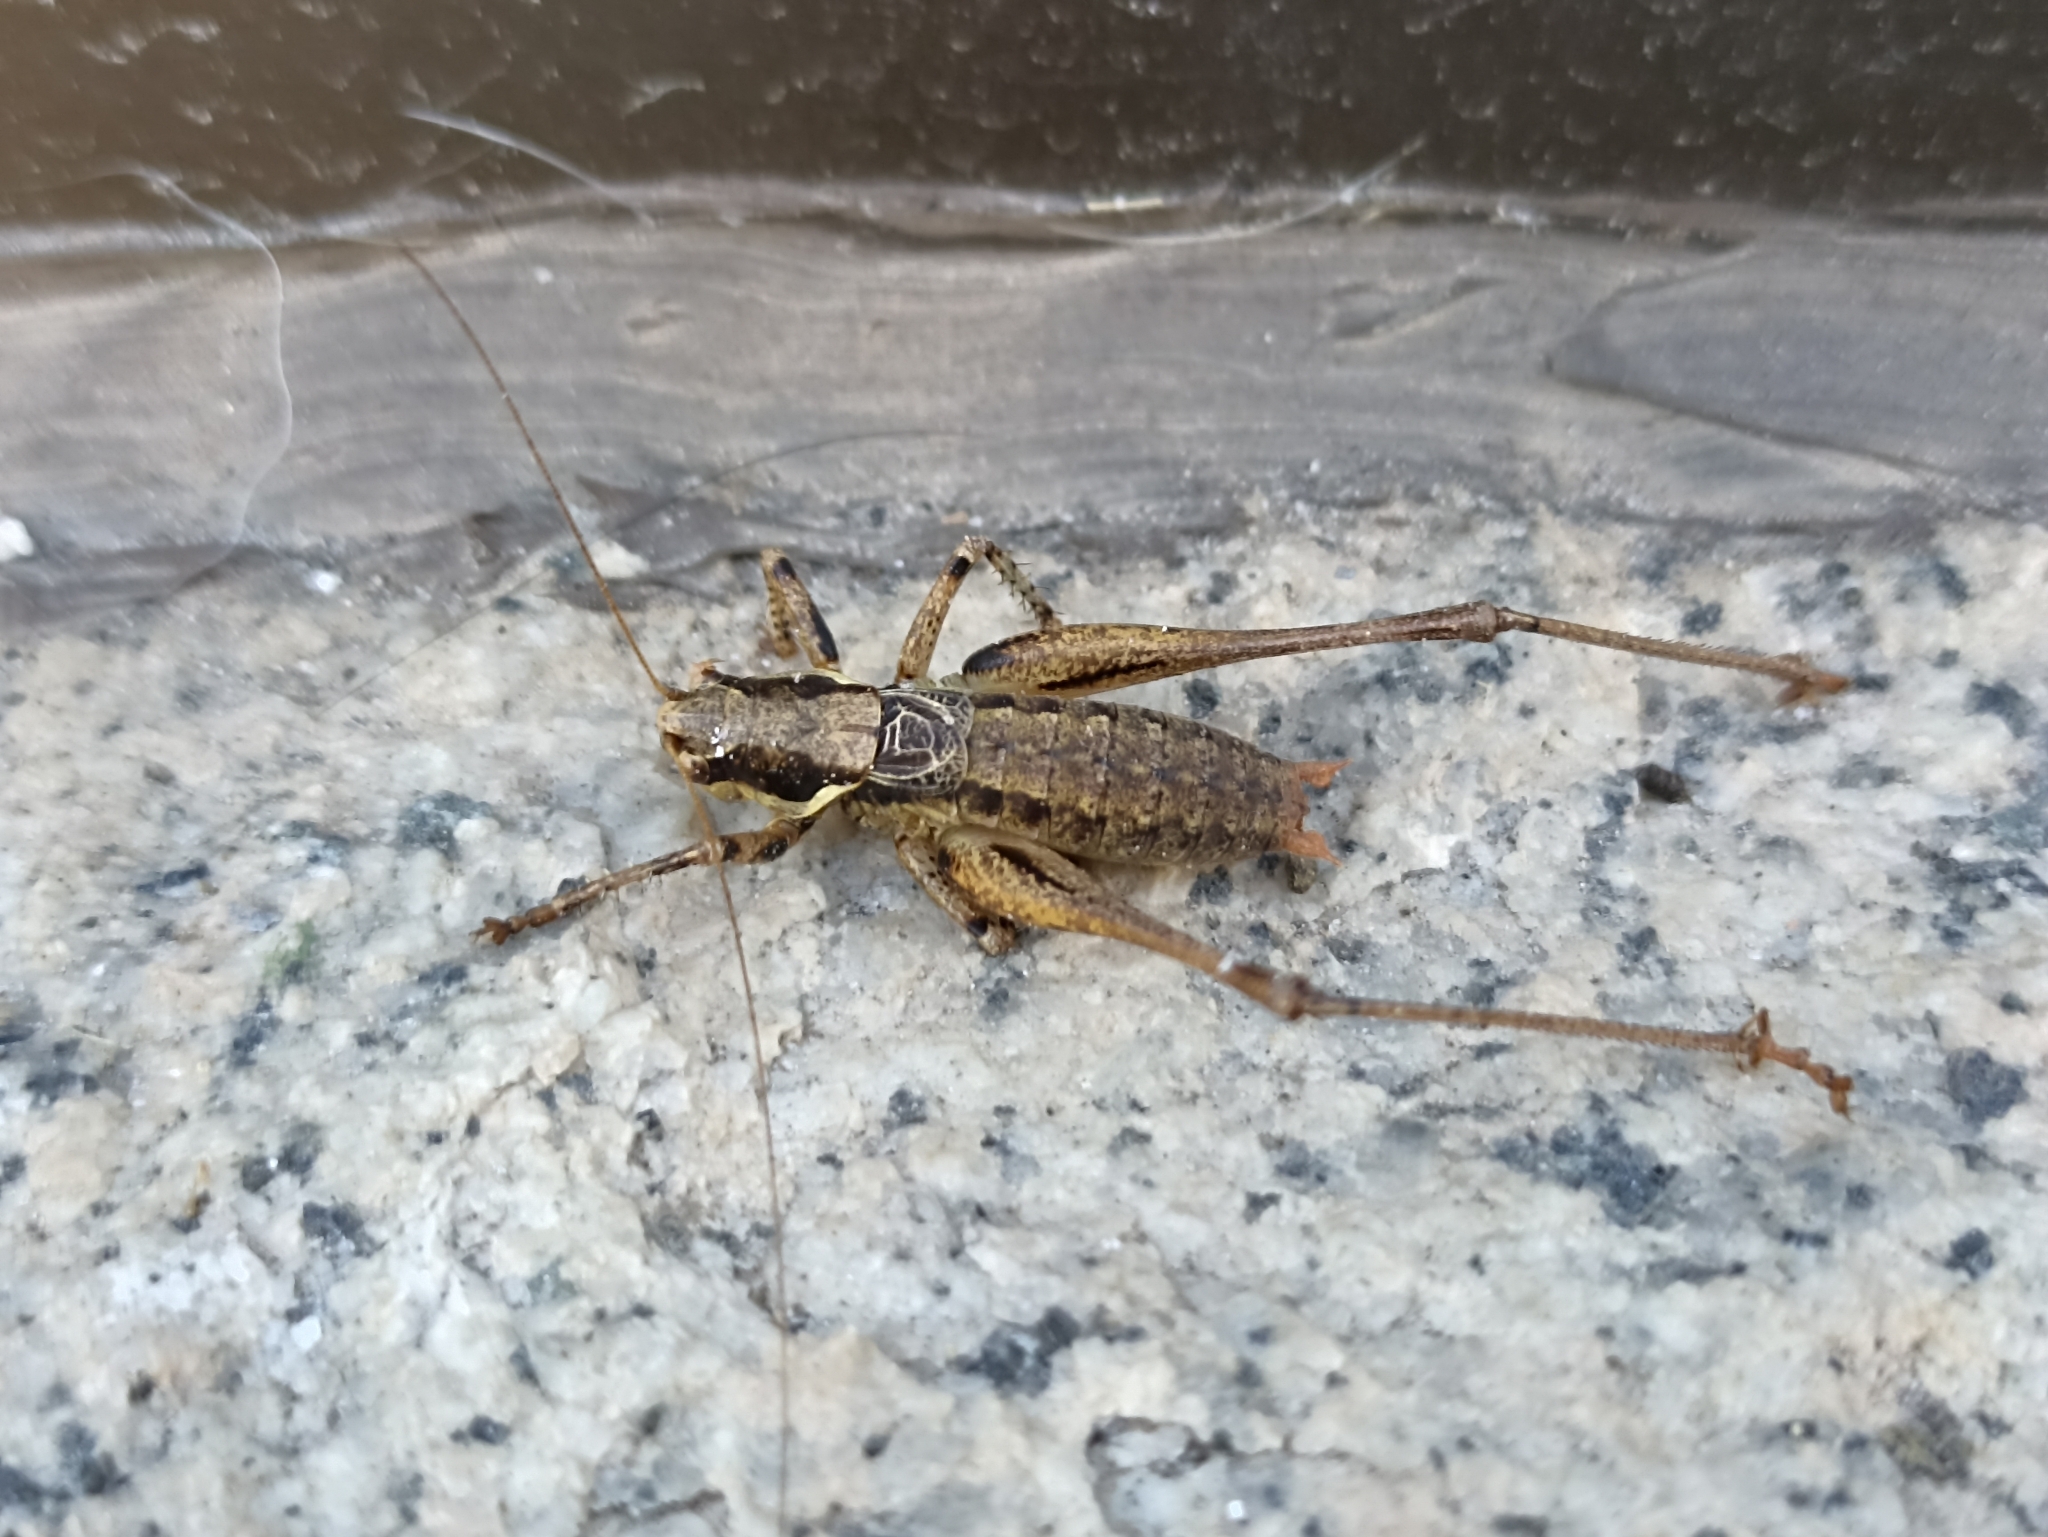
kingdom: Animalia
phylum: Arthropoda
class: Insecta
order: Orthoptera
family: Tettigoniidae
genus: Antaxius
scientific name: Antaxius spinibrachius
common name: Spiny-legged bush-cricket
